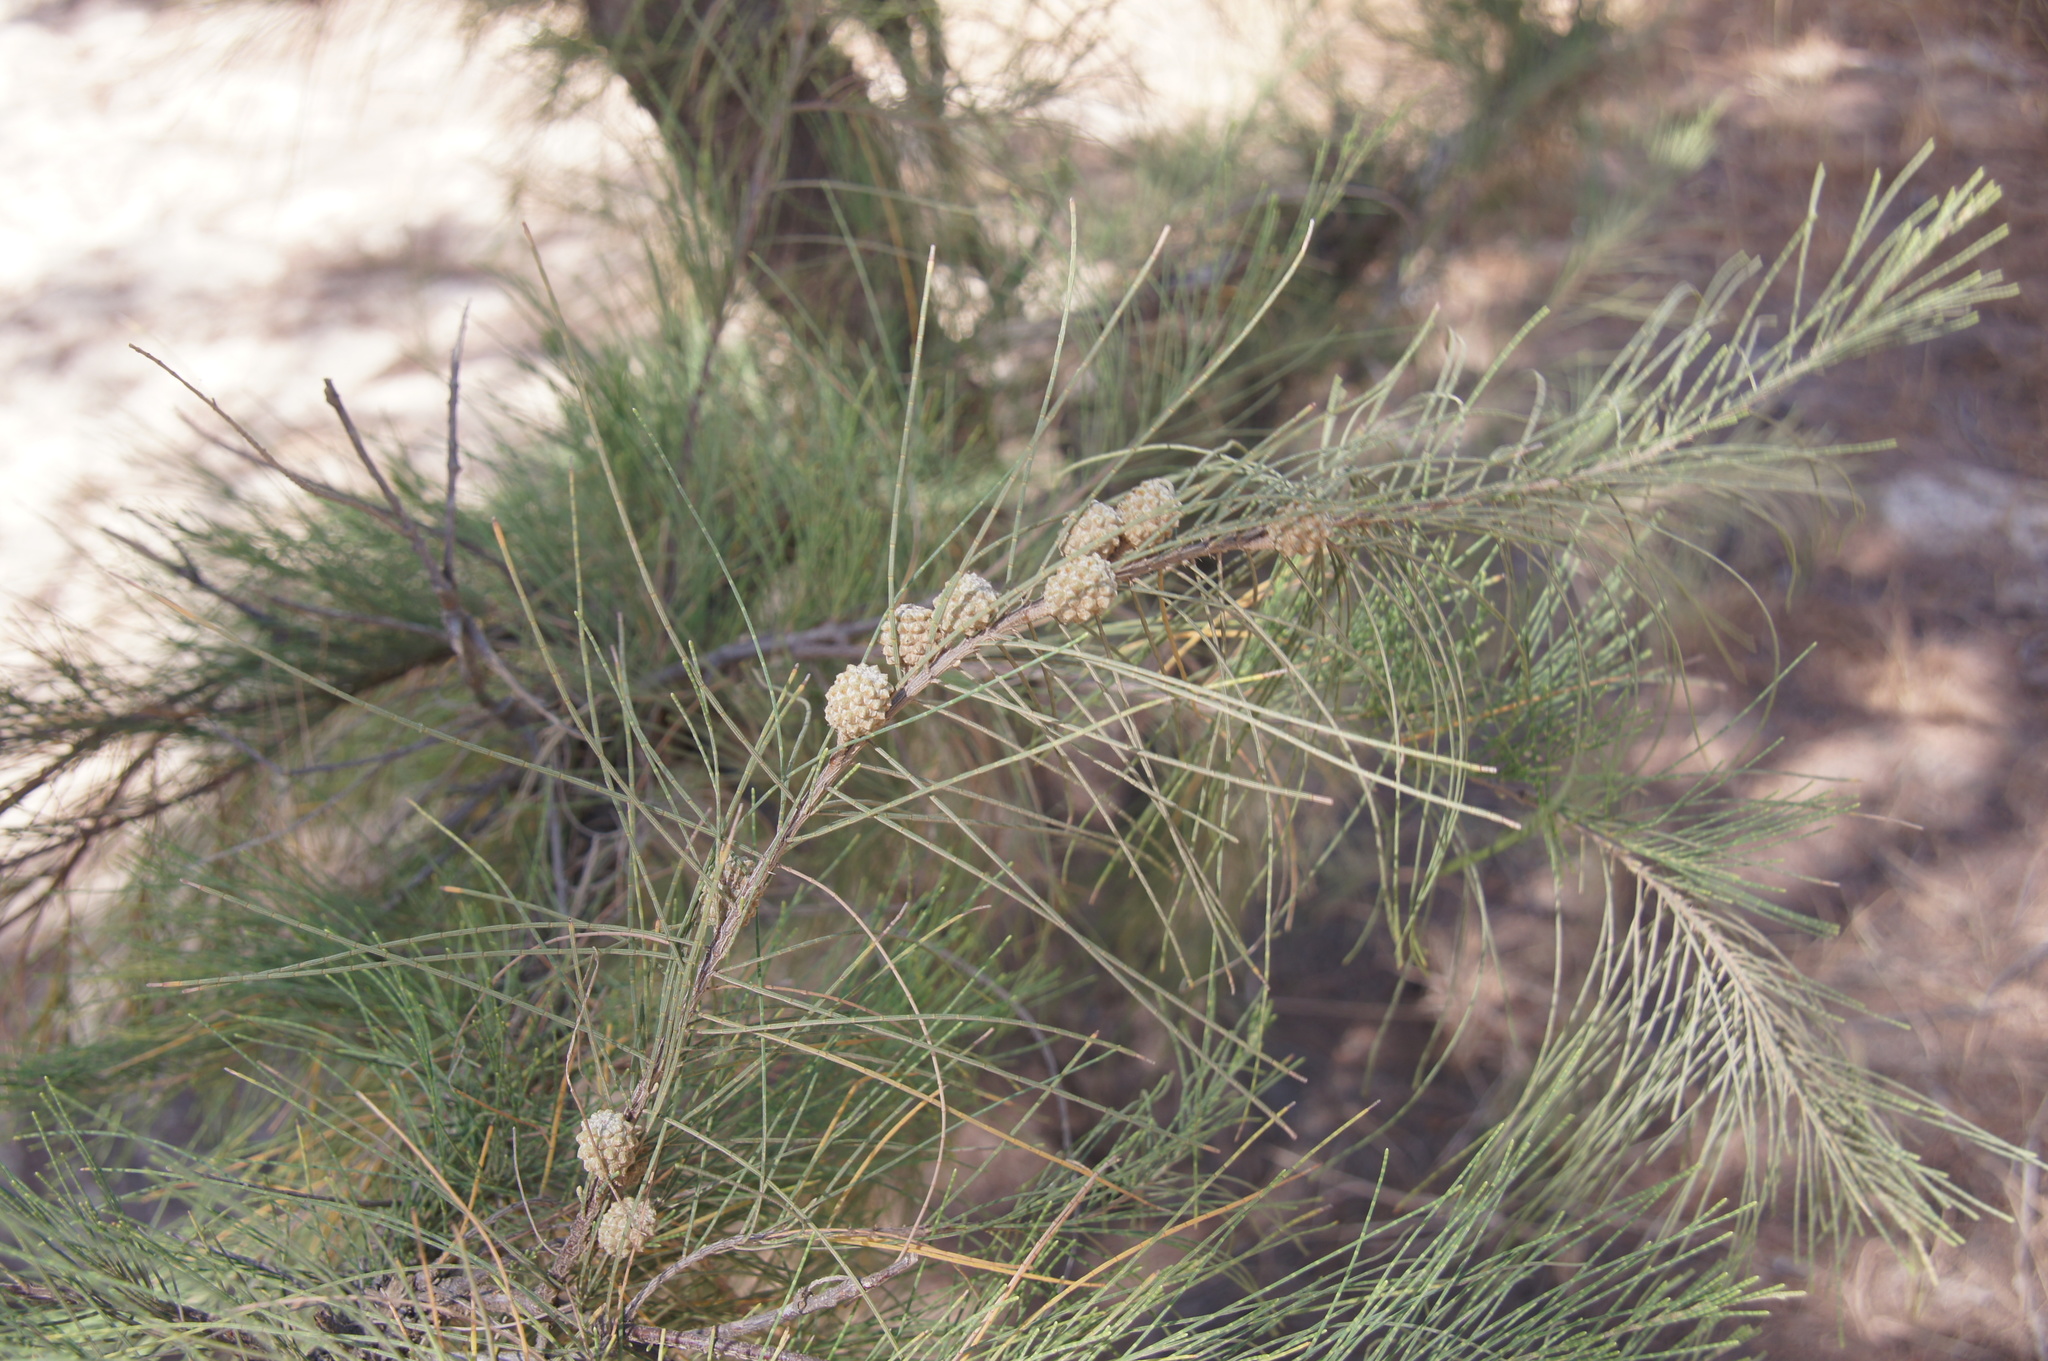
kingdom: Plantae
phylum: Tracheophyta
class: Magnoliopsida
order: Fagales
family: Casuarinaceae
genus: Casuarina
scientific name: Casuarina equisetifolia
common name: Beach sheoak
